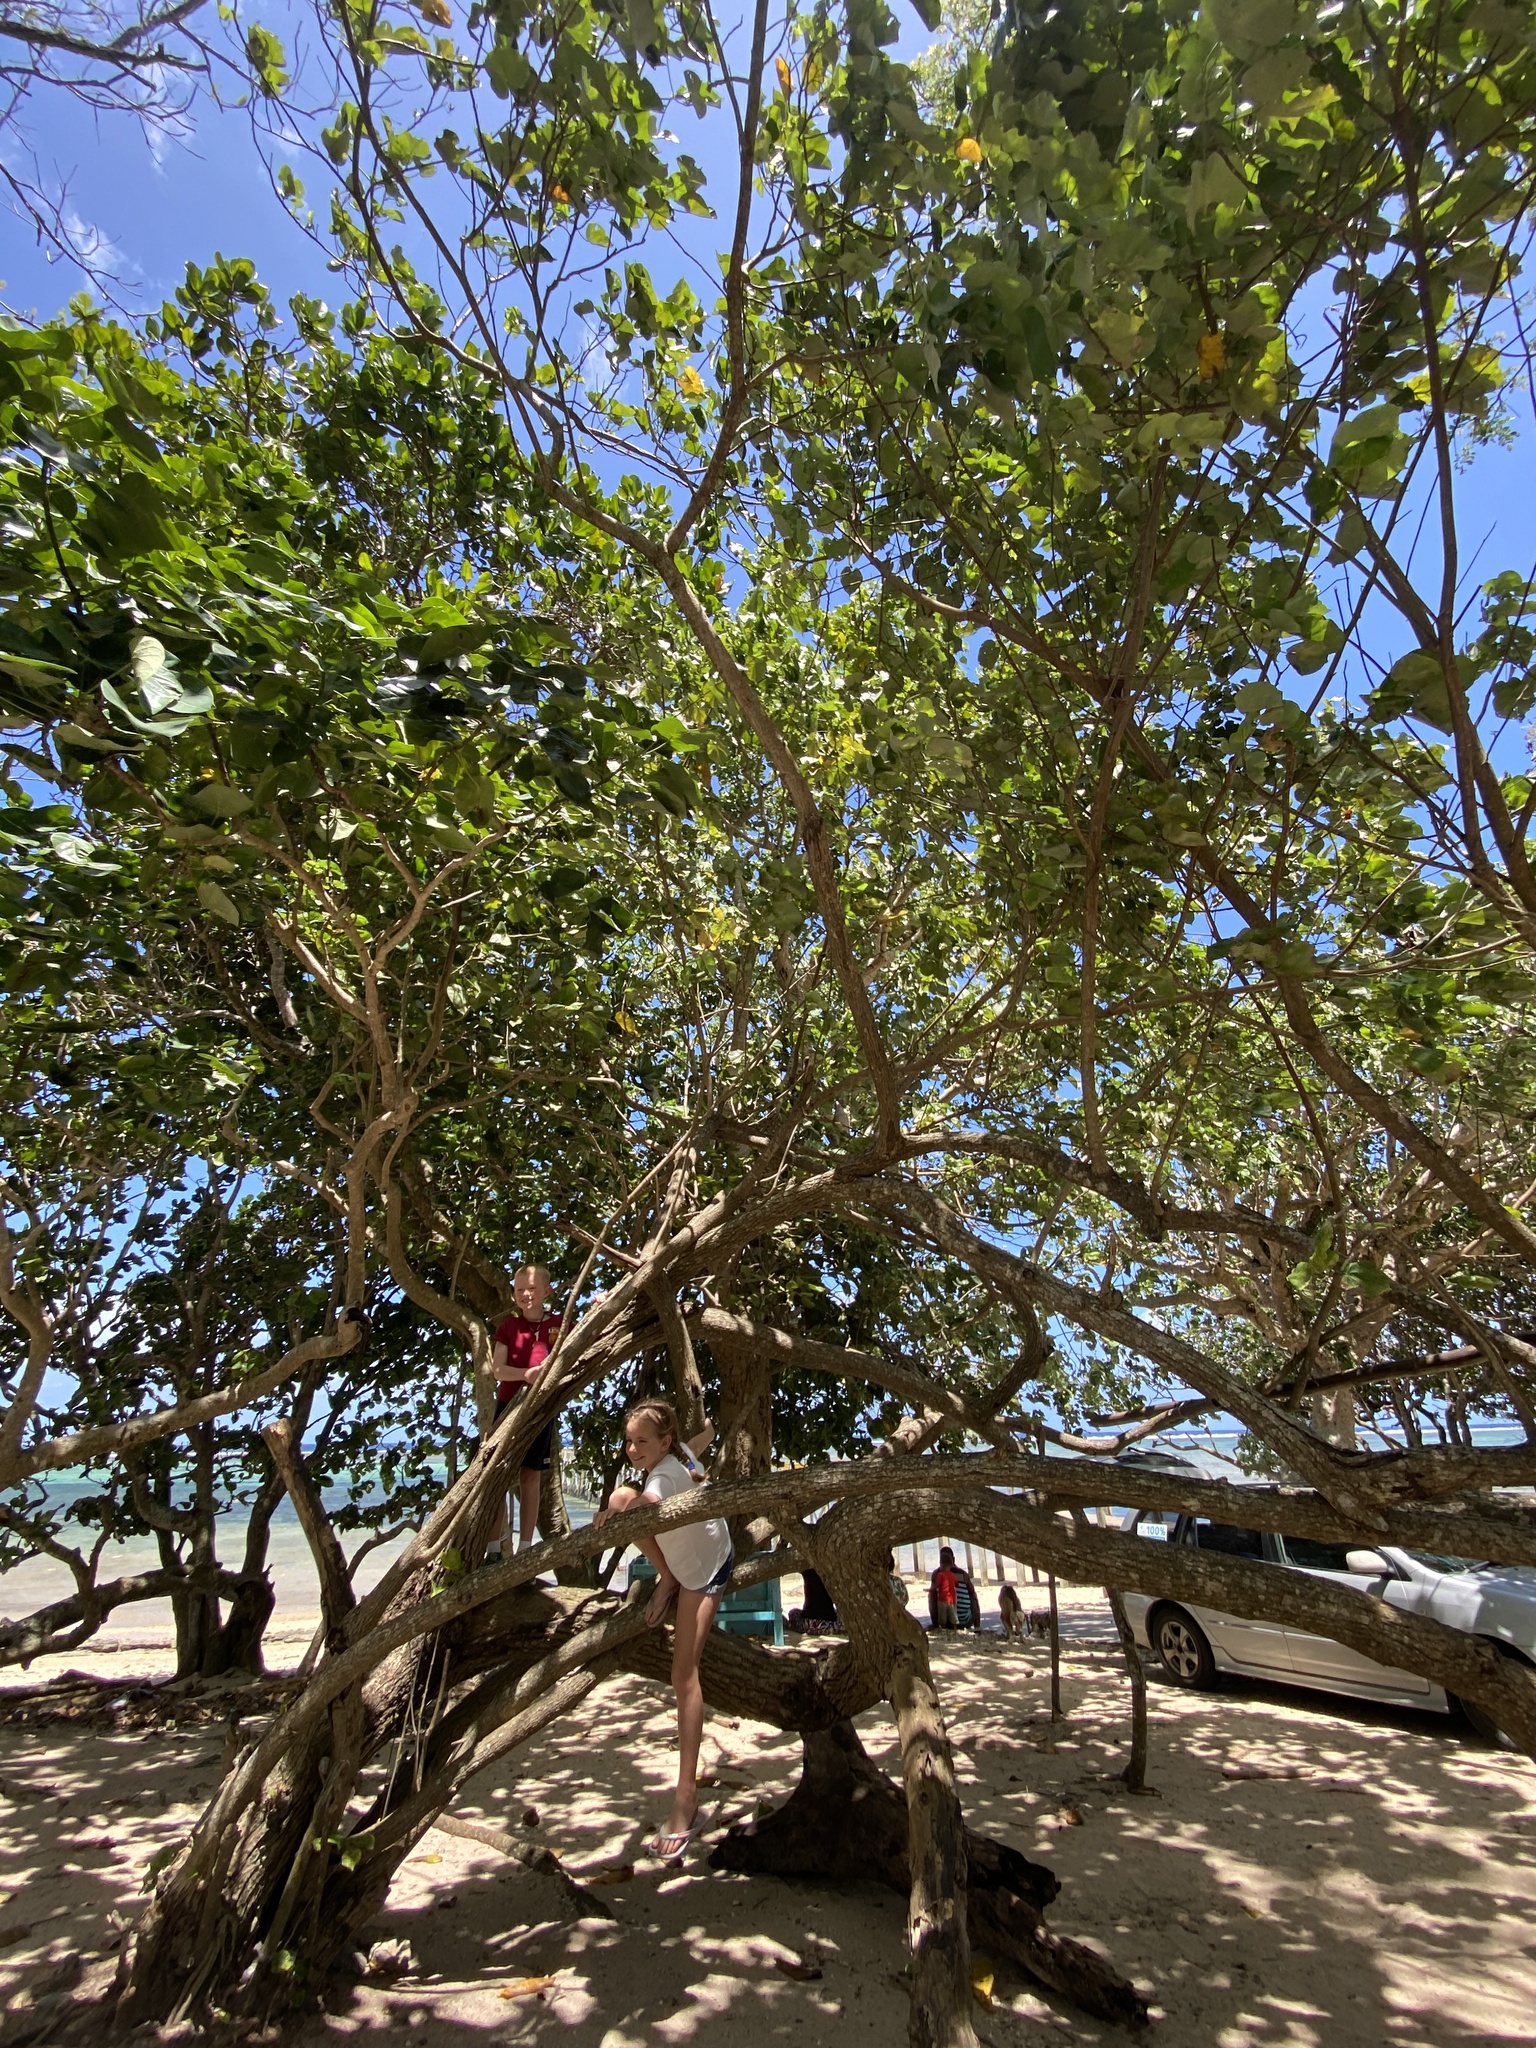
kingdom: Plantae
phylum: Tracheophyta
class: Magnoliopsida
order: Malvales
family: Malvaceae
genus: Talipariti
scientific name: Talipariti tiliaceum
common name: Sea hibiscus
